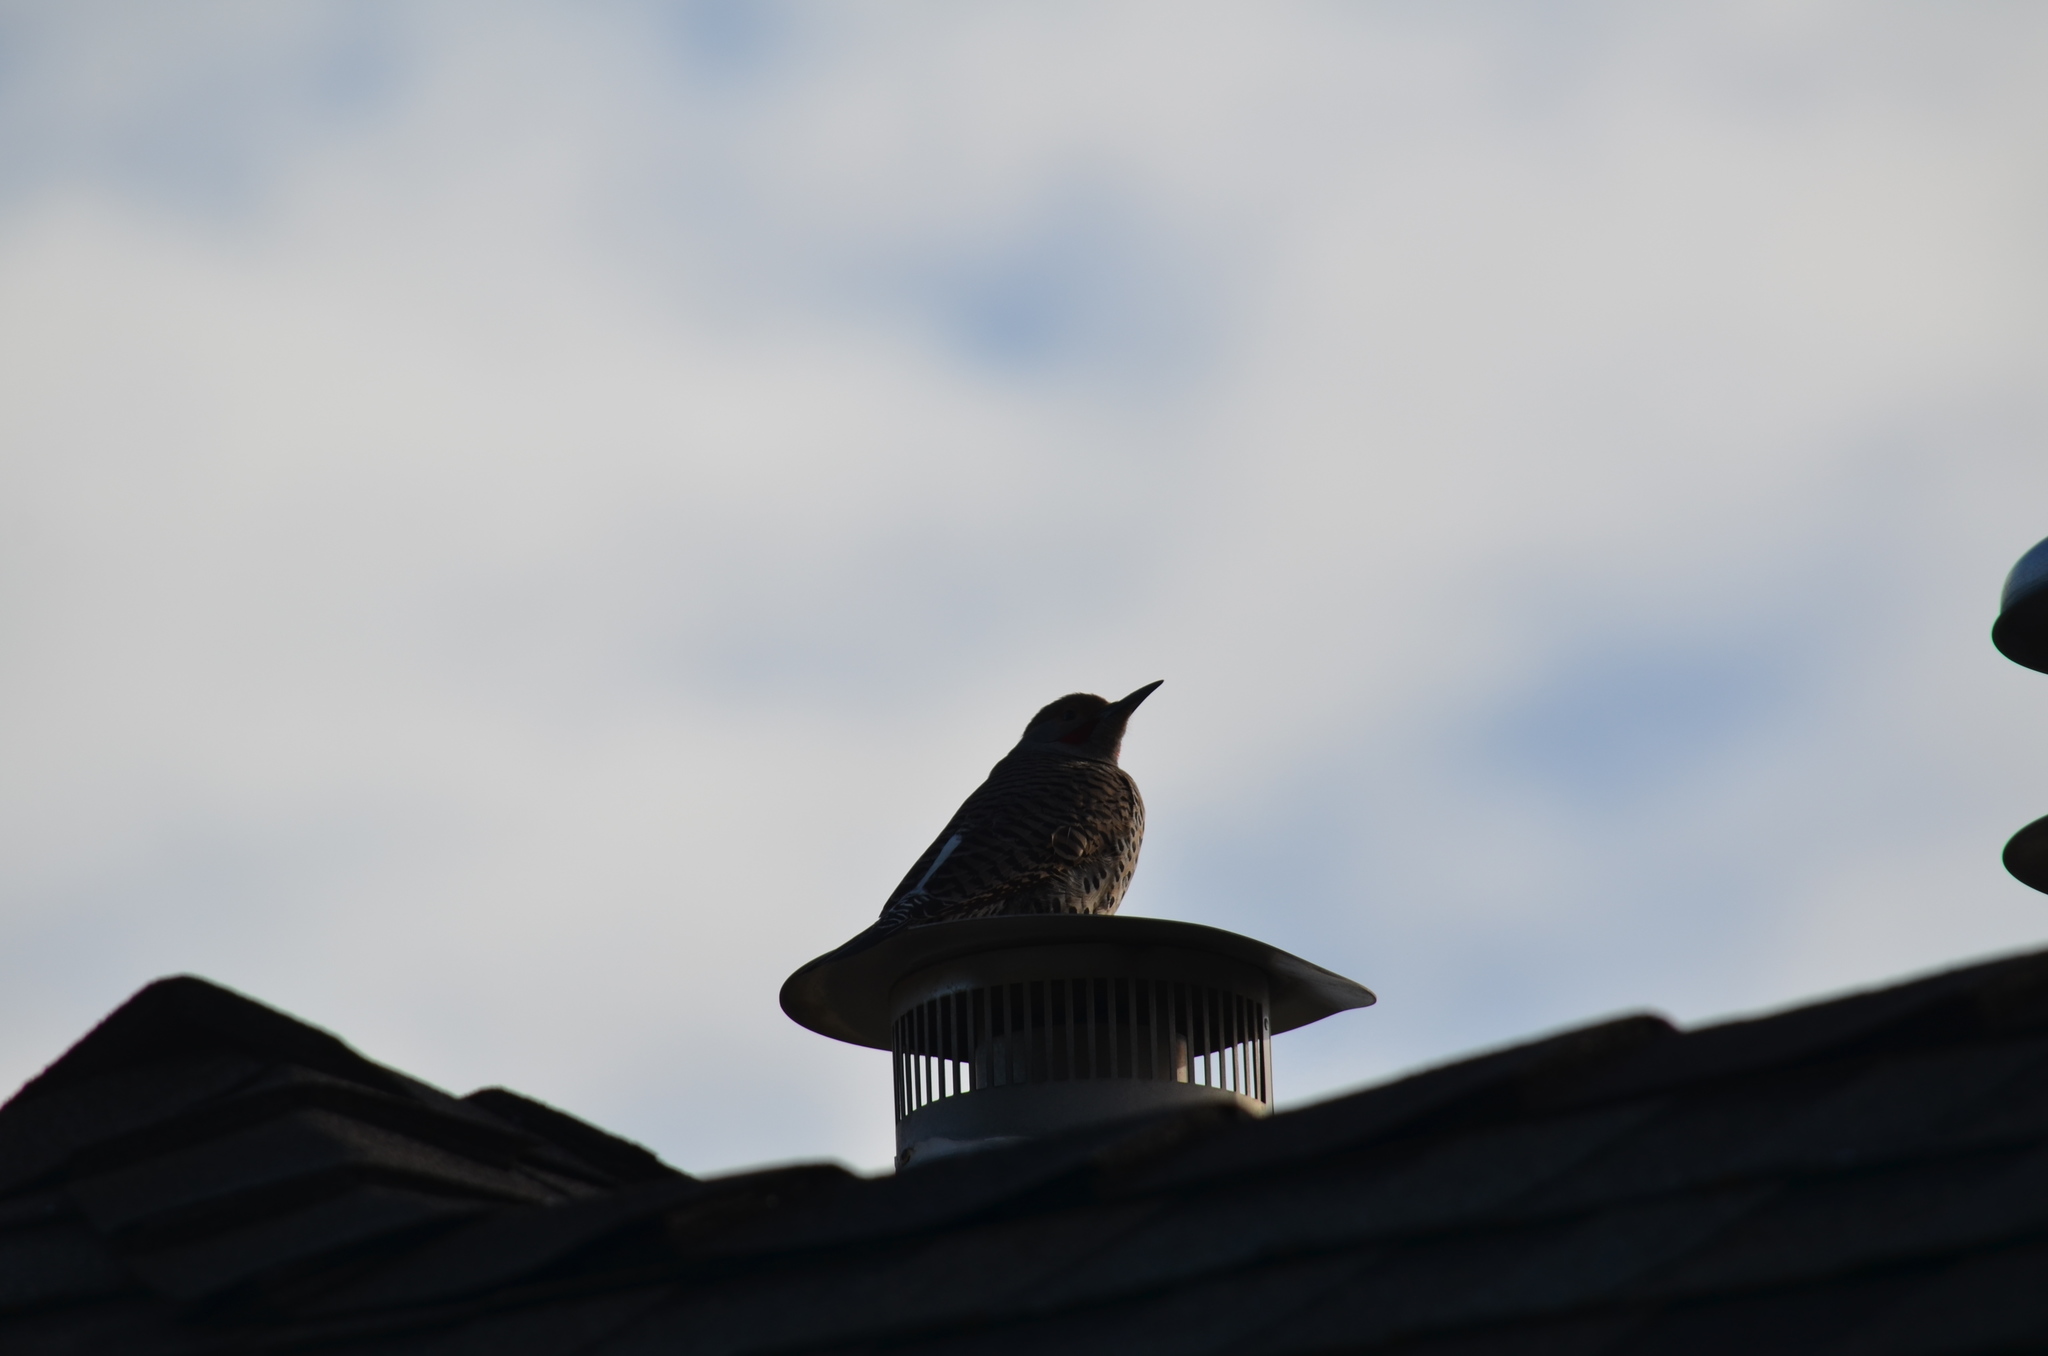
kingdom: Animalia
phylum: Chordata
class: Aves
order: Piciformes
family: Picidae
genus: Colaptes
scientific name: Colaptes auratus
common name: Northern flicker
